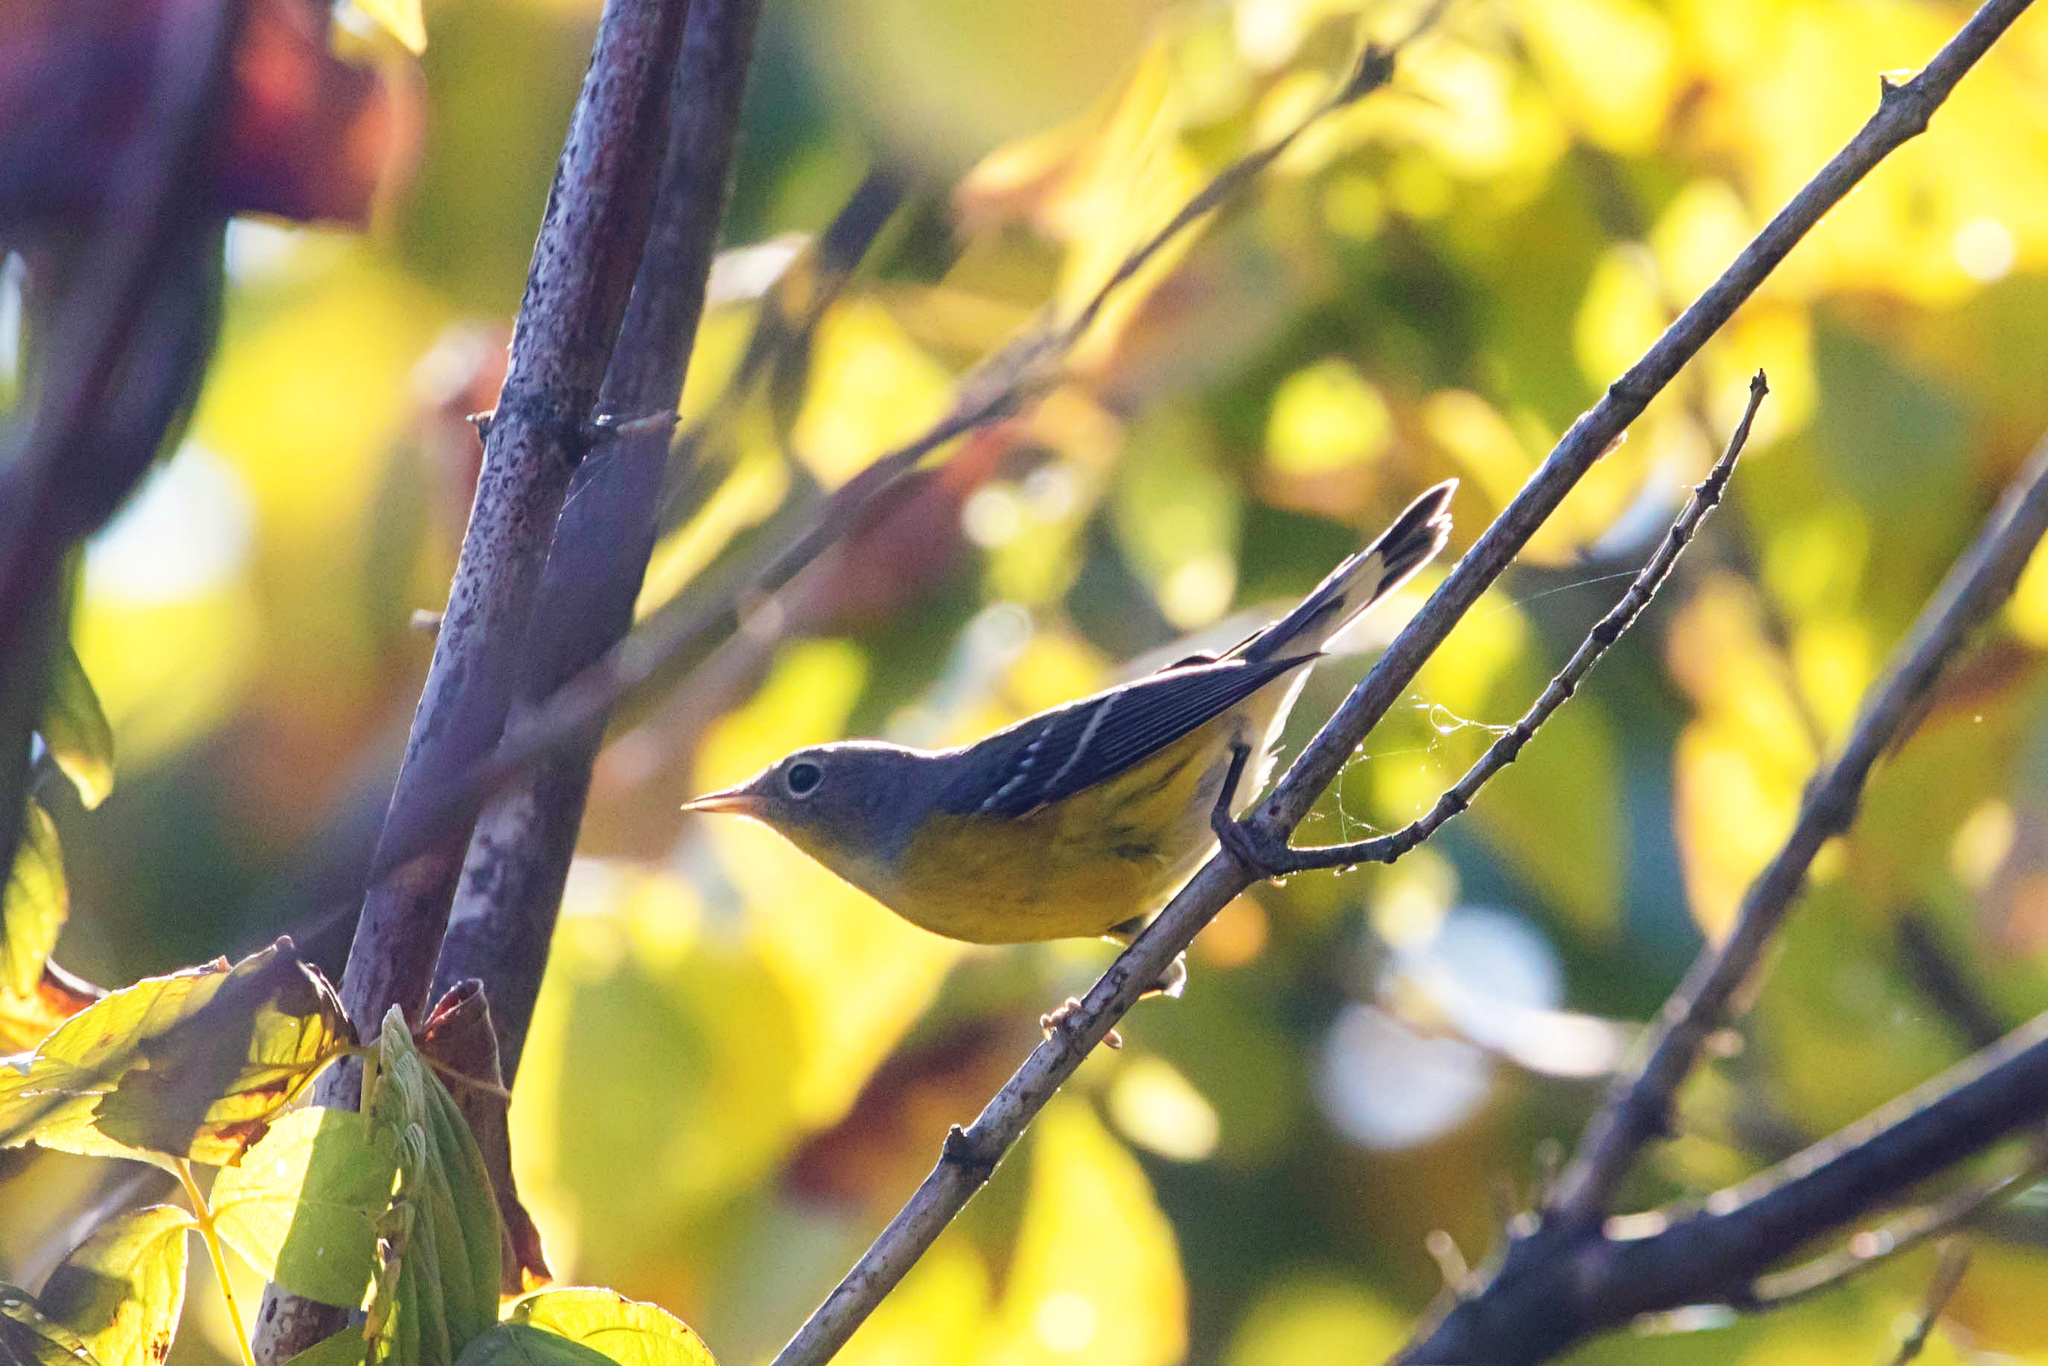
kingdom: Animalia
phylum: Chordata
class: Aves
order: Passeriformes
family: Parulidae
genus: Setophaga
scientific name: Setophaga magnolia
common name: Magnolia warbler
